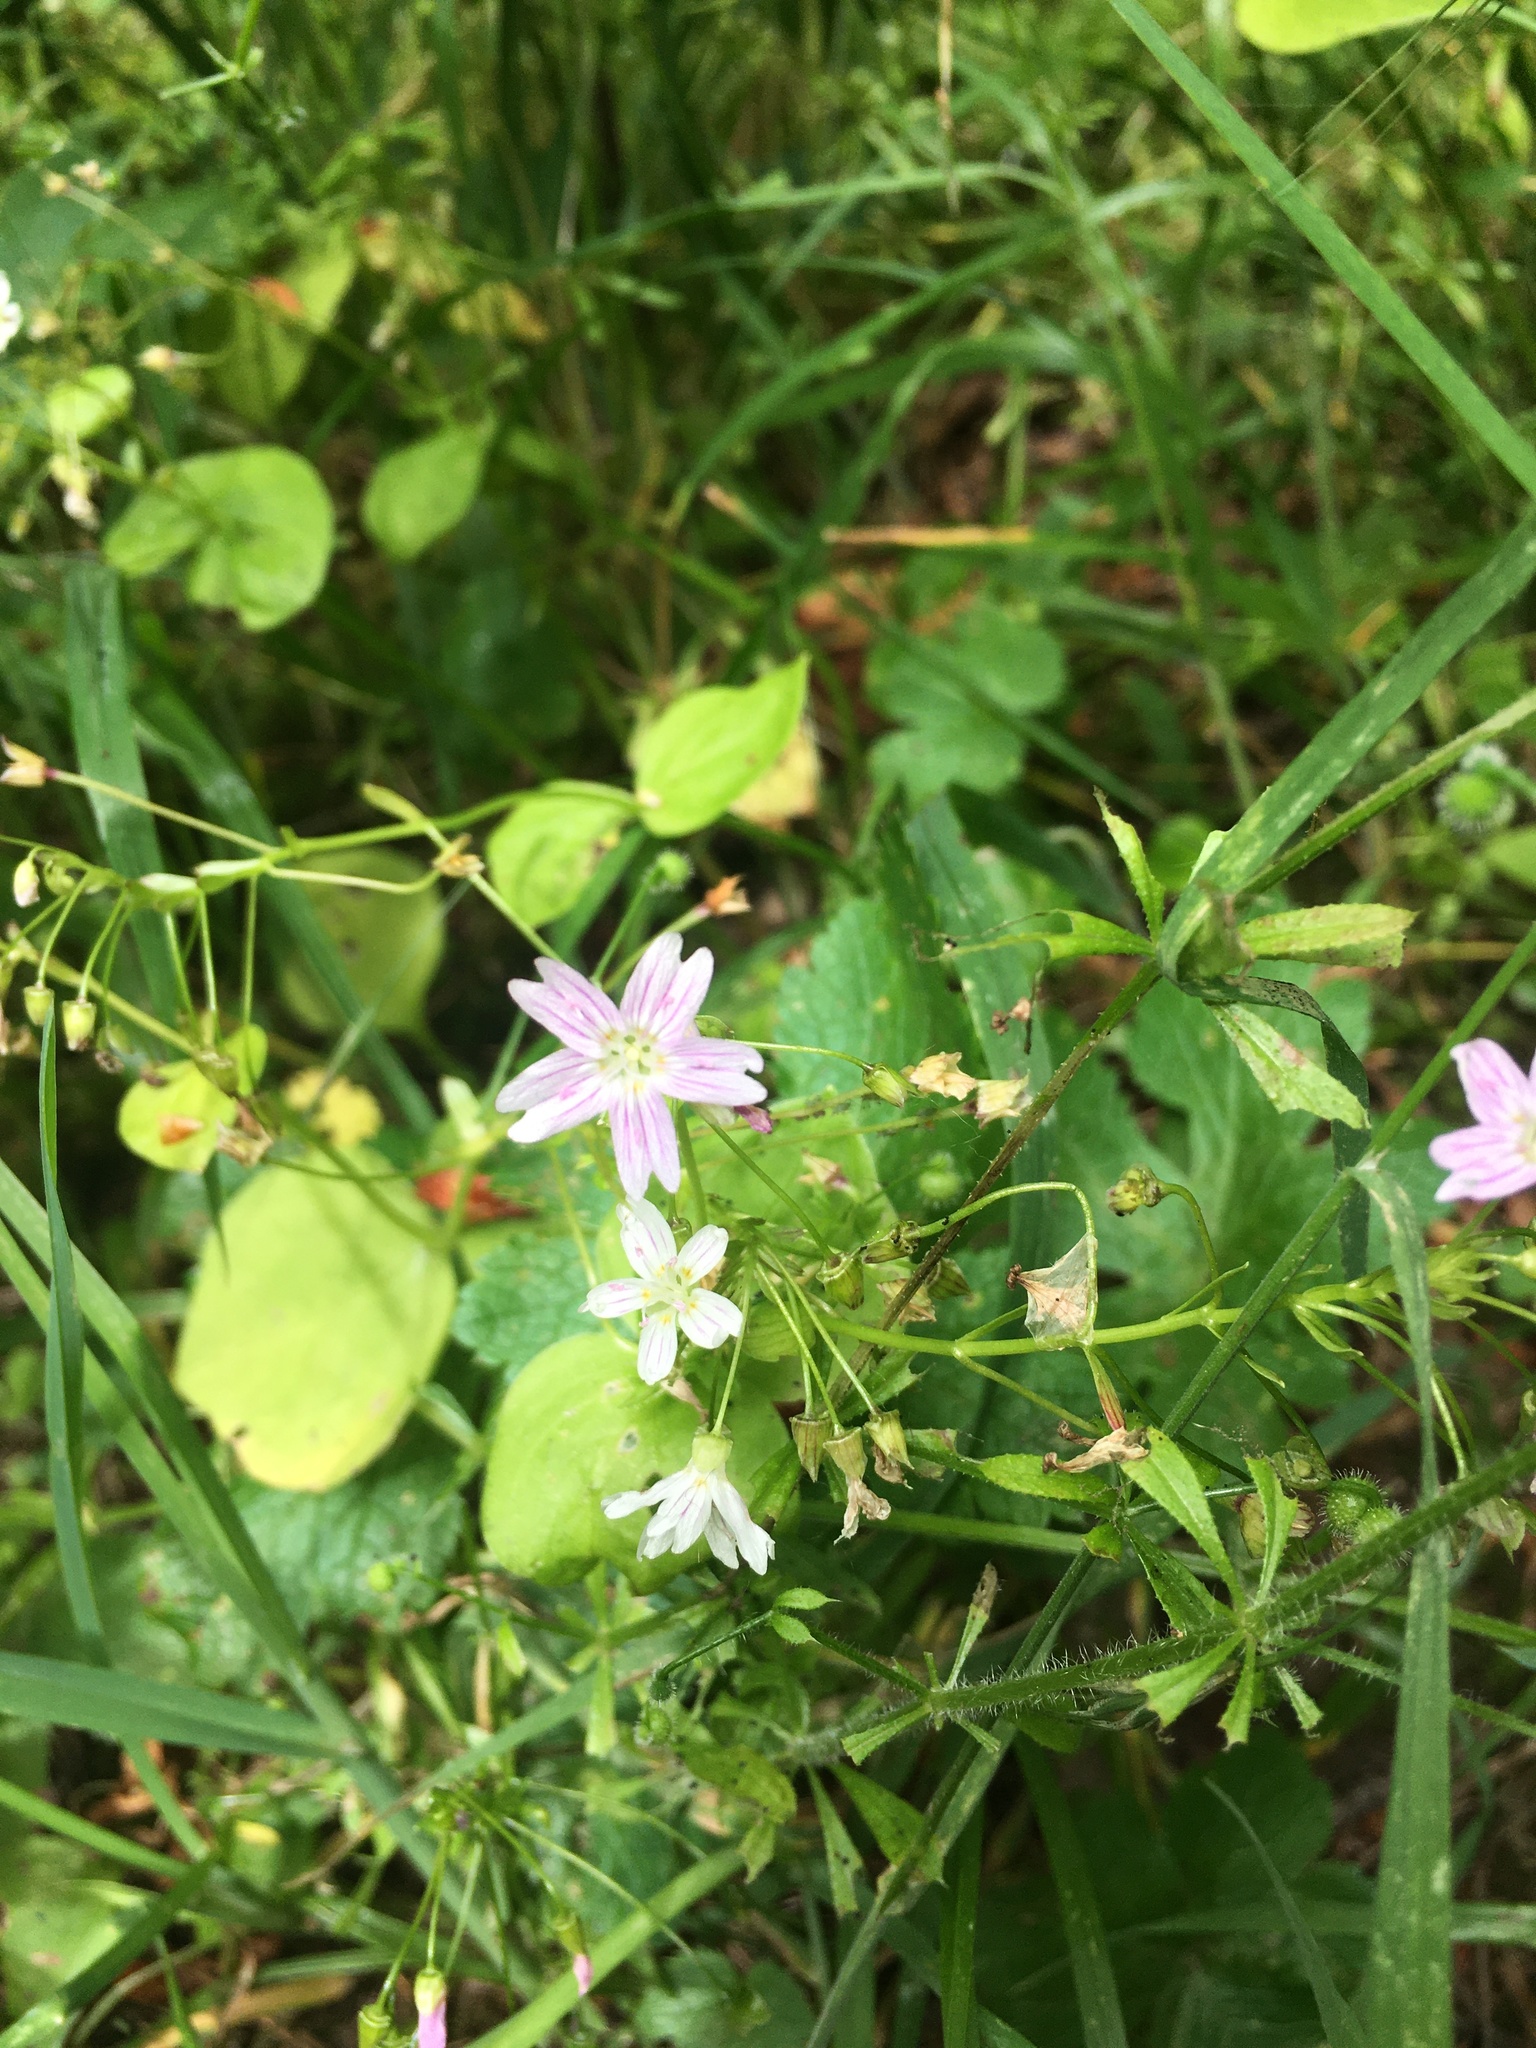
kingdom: Plantae
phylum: Tracheophyta
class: Magnoliopsida
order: Caryophyllales
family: Montiaceae
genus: Claytonia
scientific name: Claytonia sibirica
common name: Pink purslane
